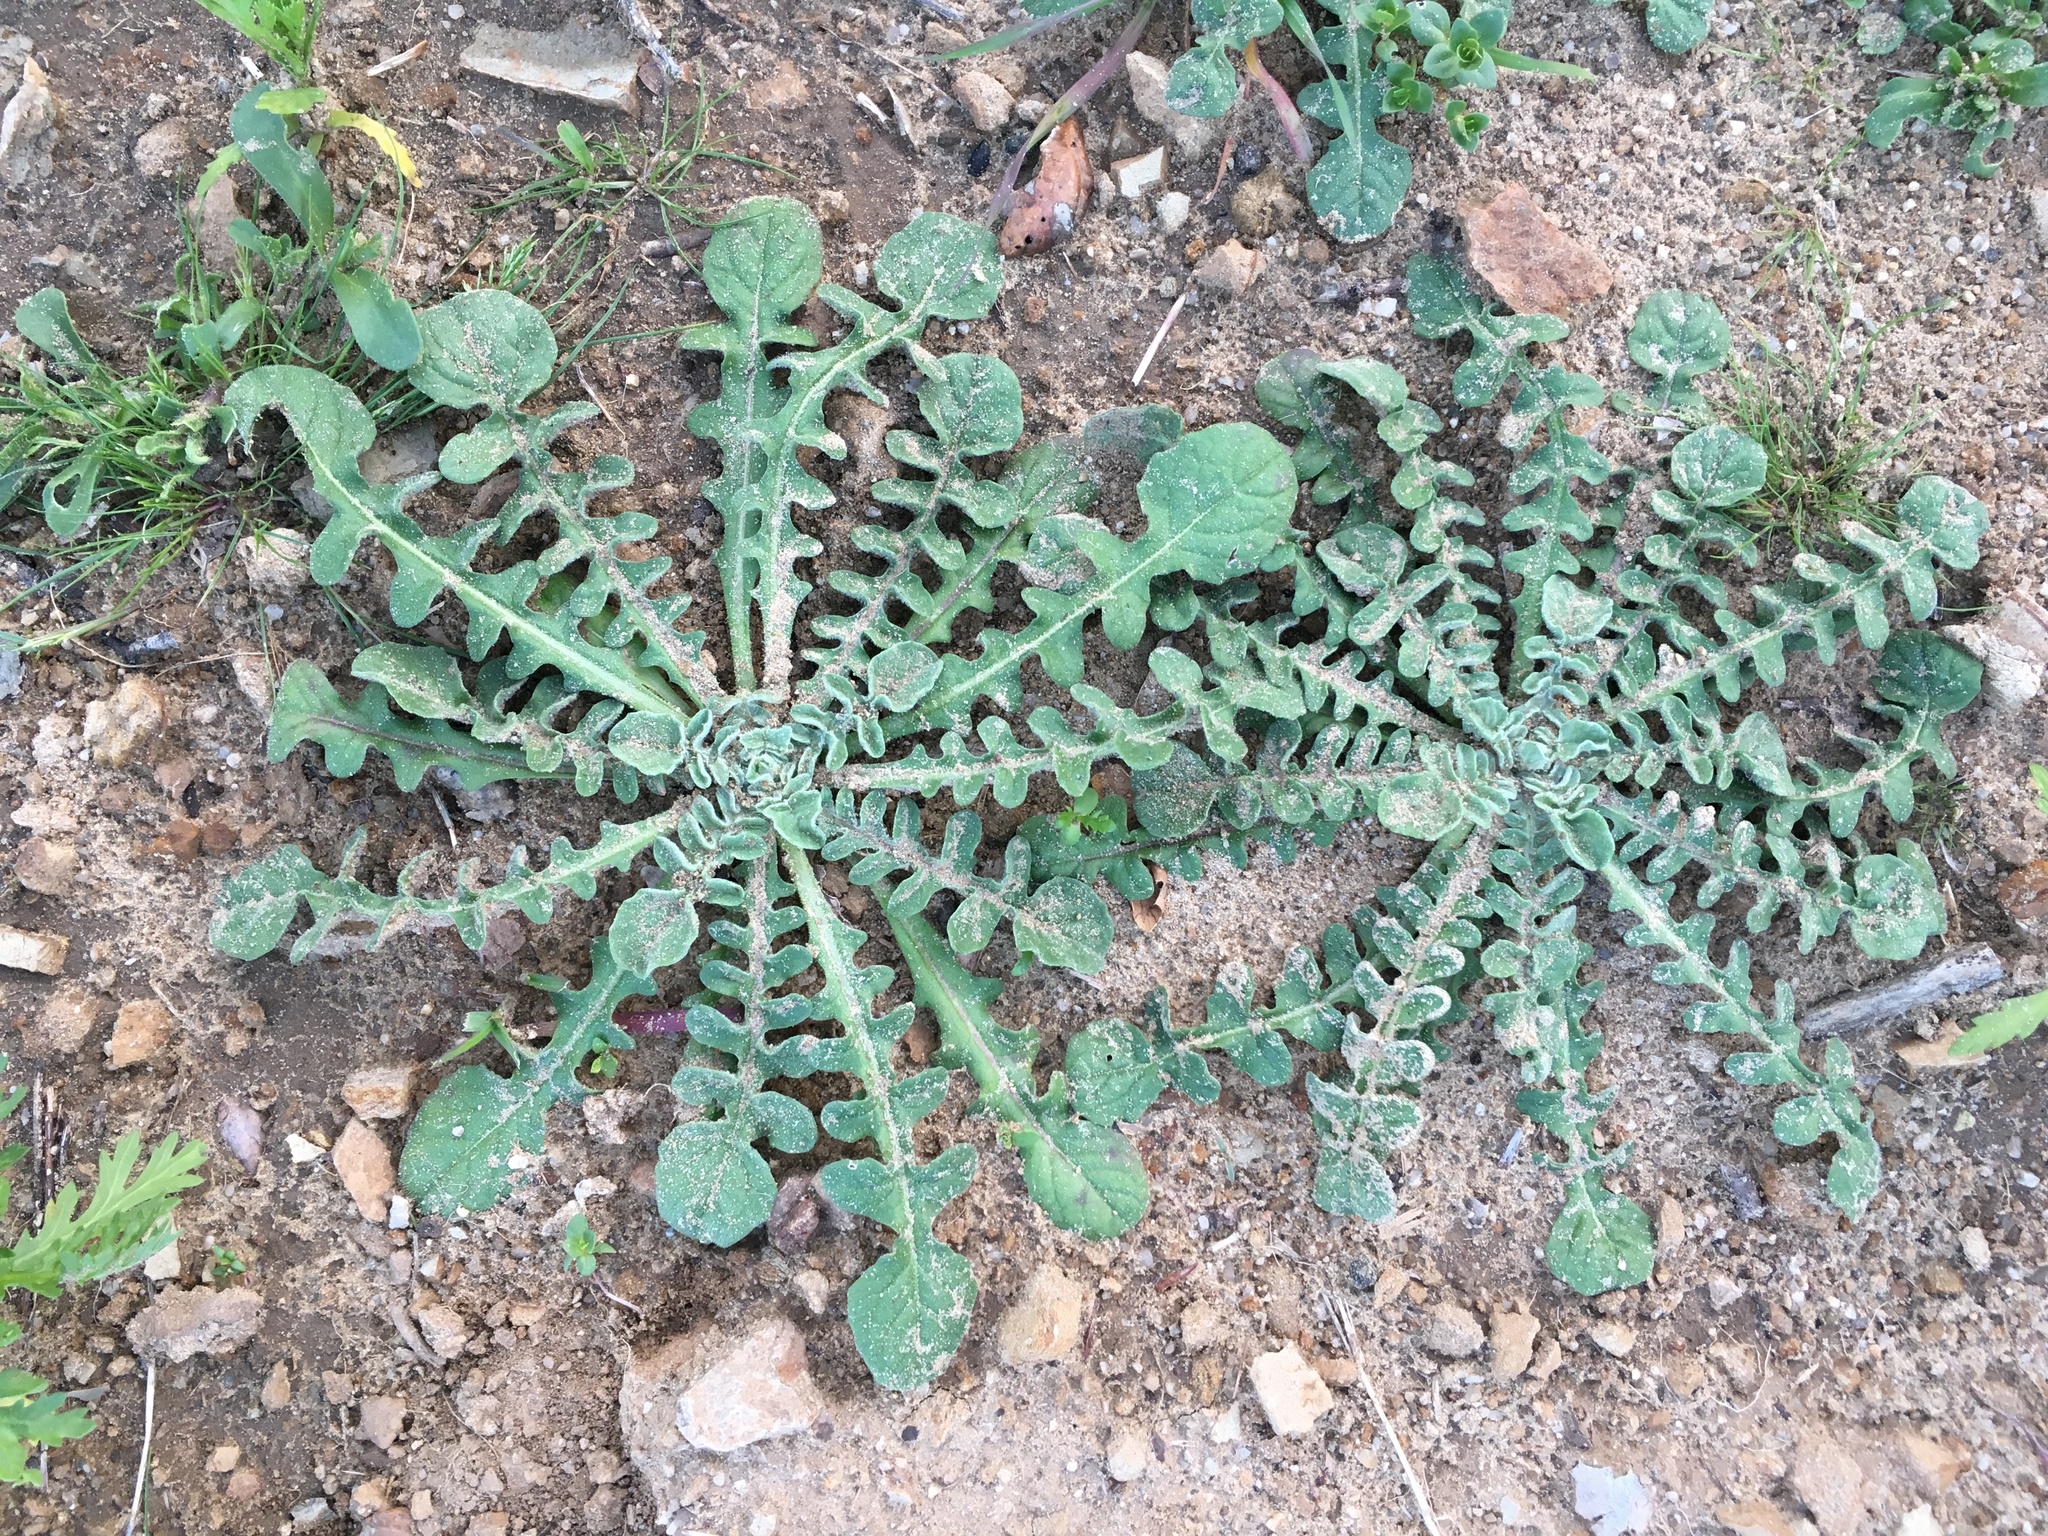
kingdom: Plantae
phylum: Tracheophyta
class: Magnoliopsida
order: Asterales
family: Asteraceae
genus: Centaurea
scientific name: Centaurea melitensis
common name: Maltese star-thistle
